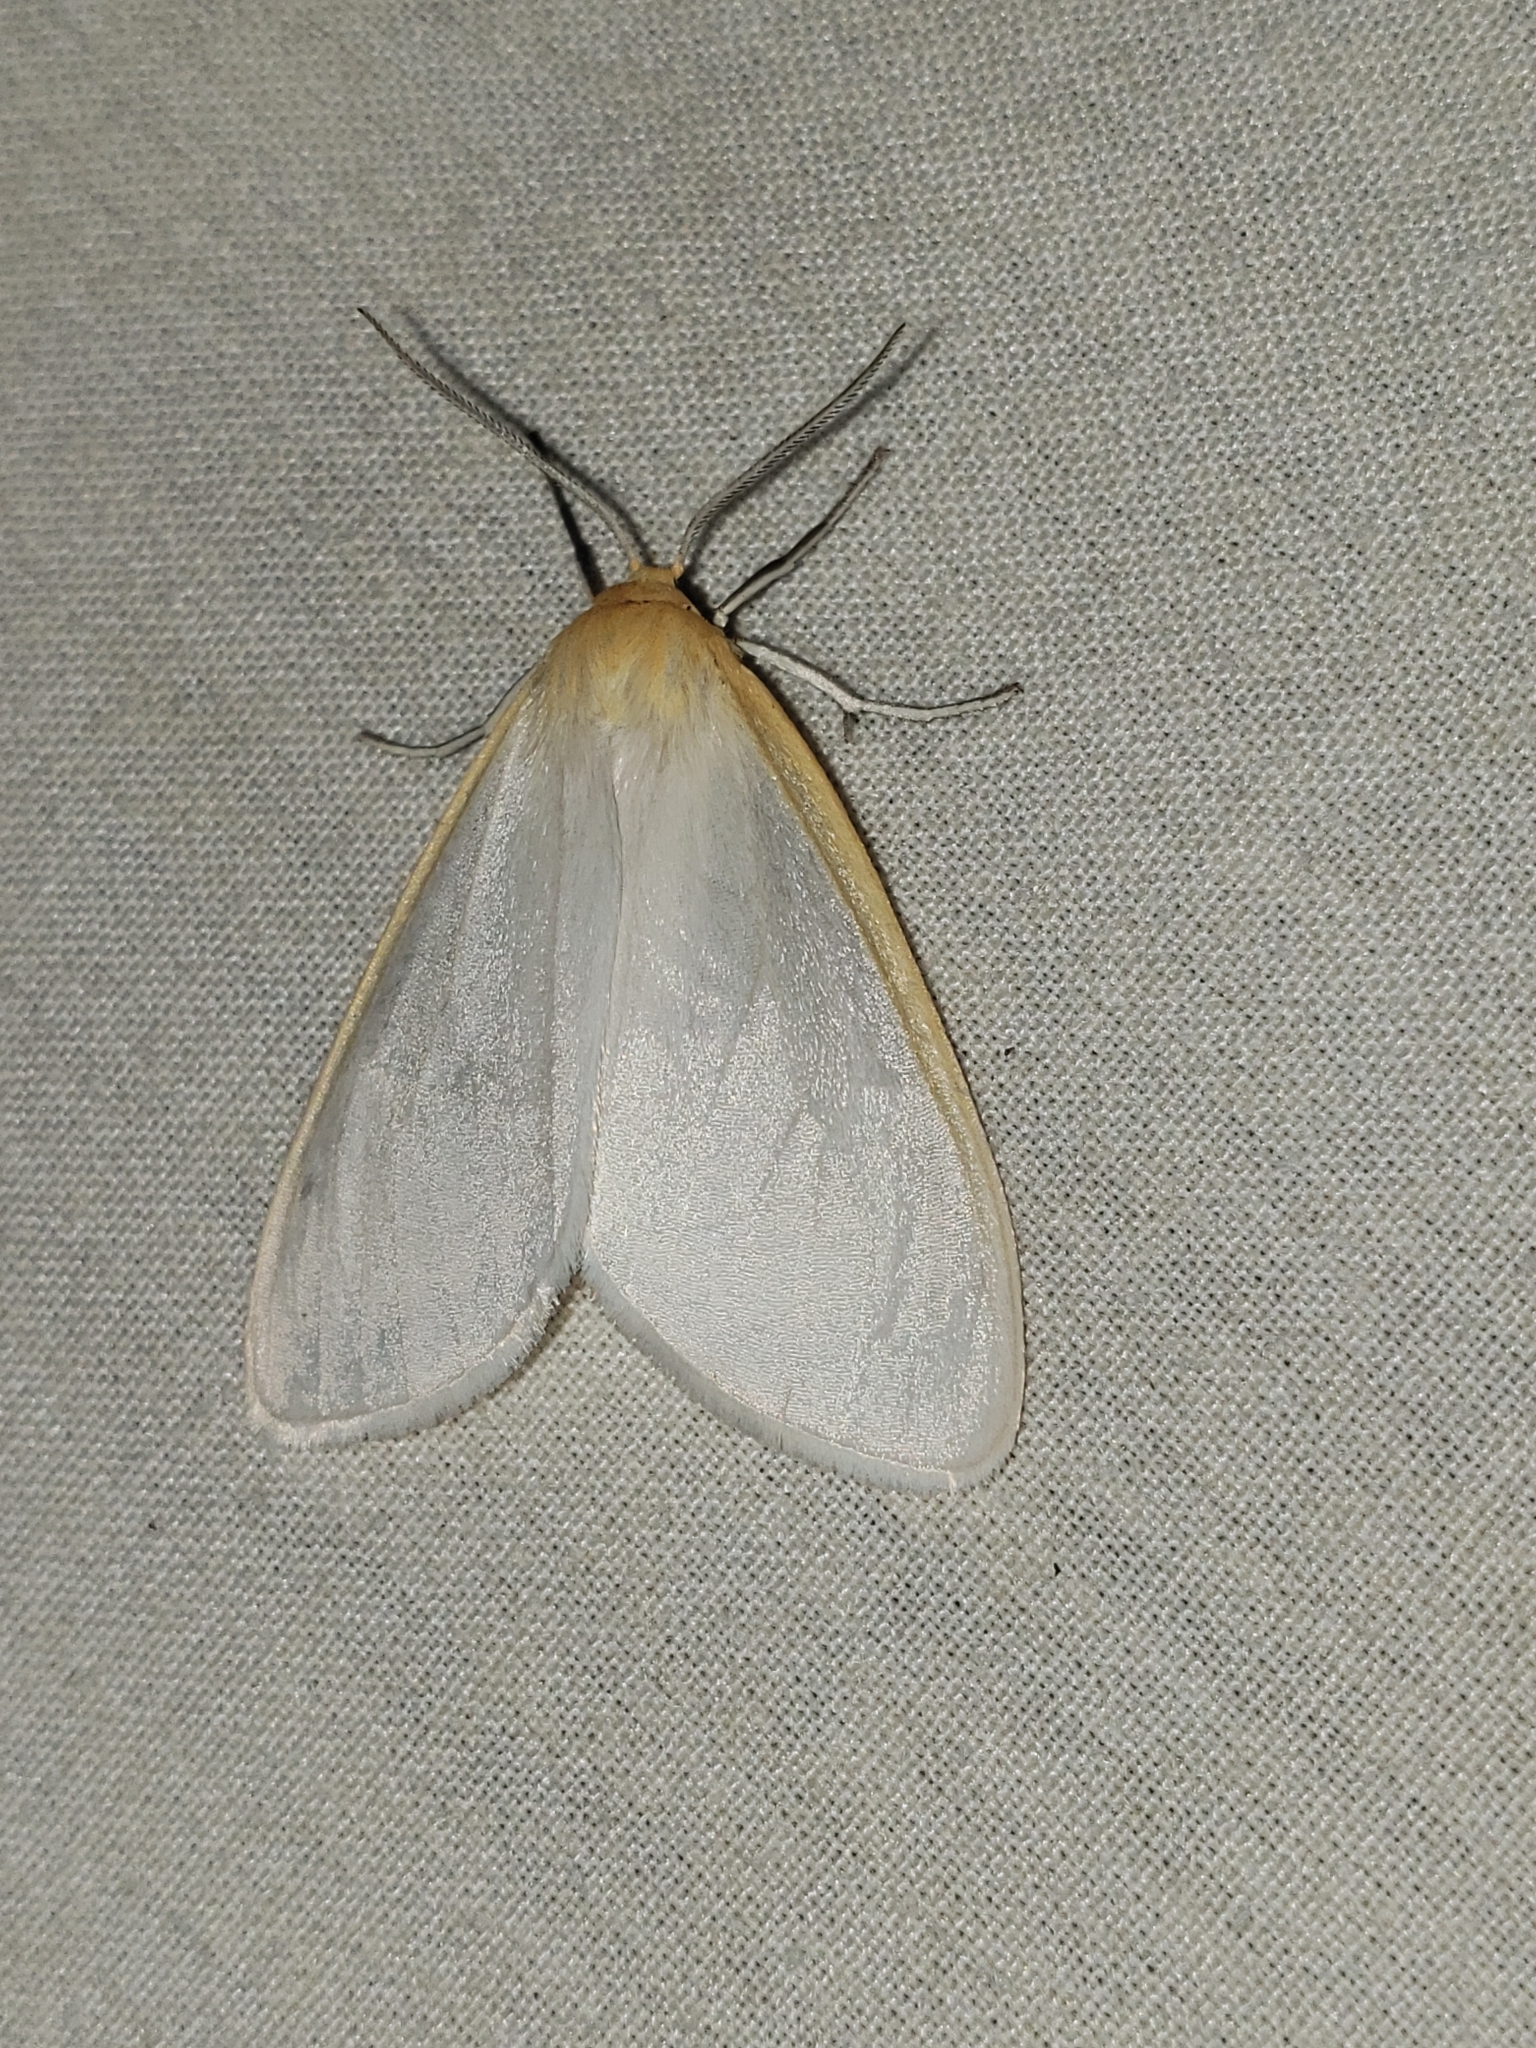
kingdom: Animalia
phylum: Arthropoda
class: Insecta
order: Lepidoptera
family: Erebidae
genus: Cycnia
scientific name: Cycnia tenera
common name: Delicate cycnia moth
